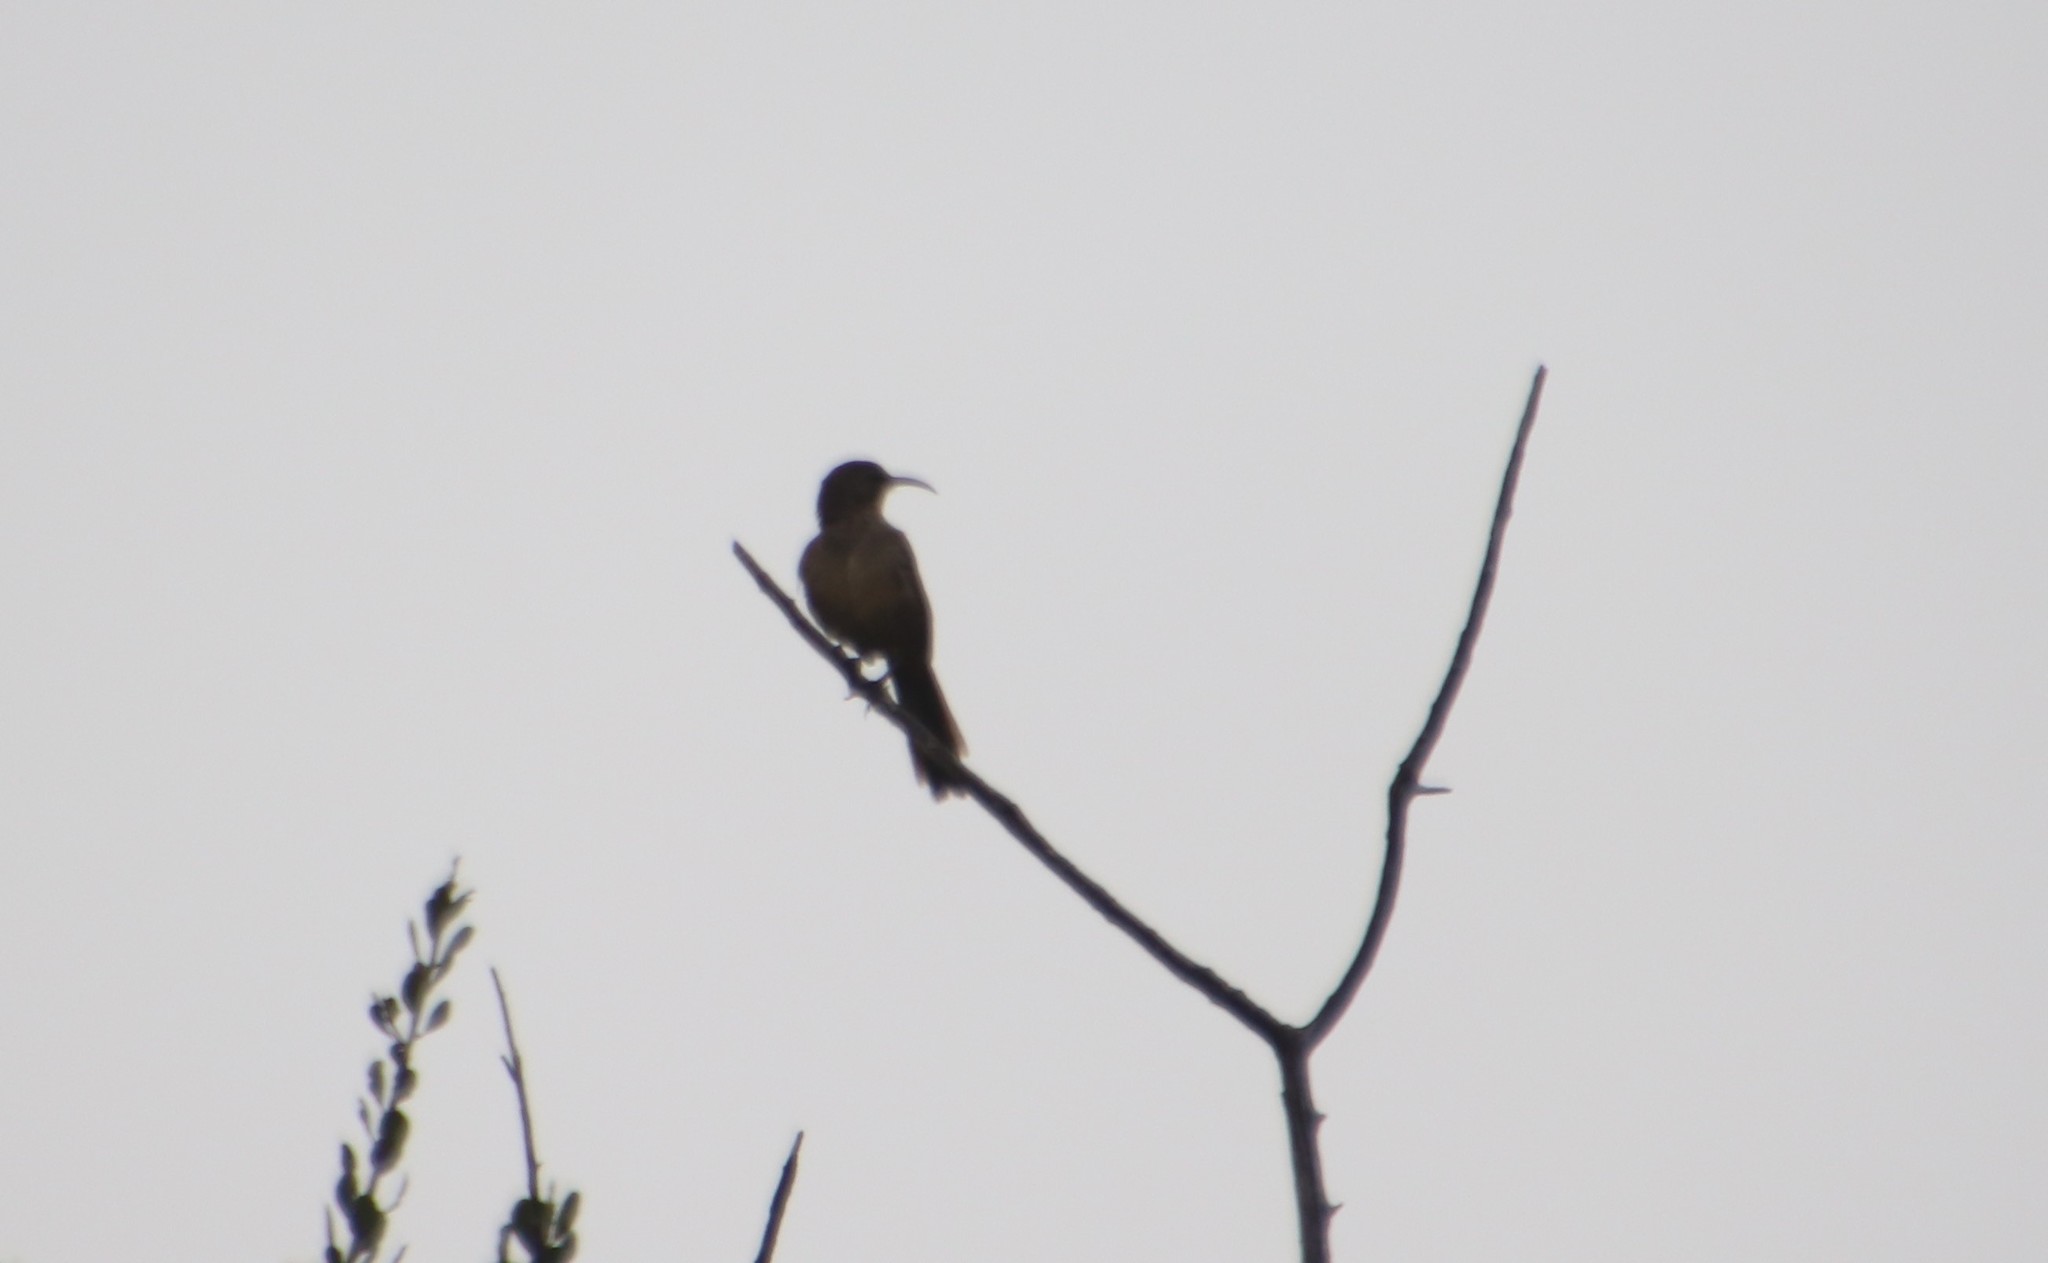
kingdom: Animalia
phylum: Chordata
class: Aves
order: Passeriformes
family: Mimidae
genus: Toxostoma
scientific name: Toxostoma redivivum
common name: California thrasher
